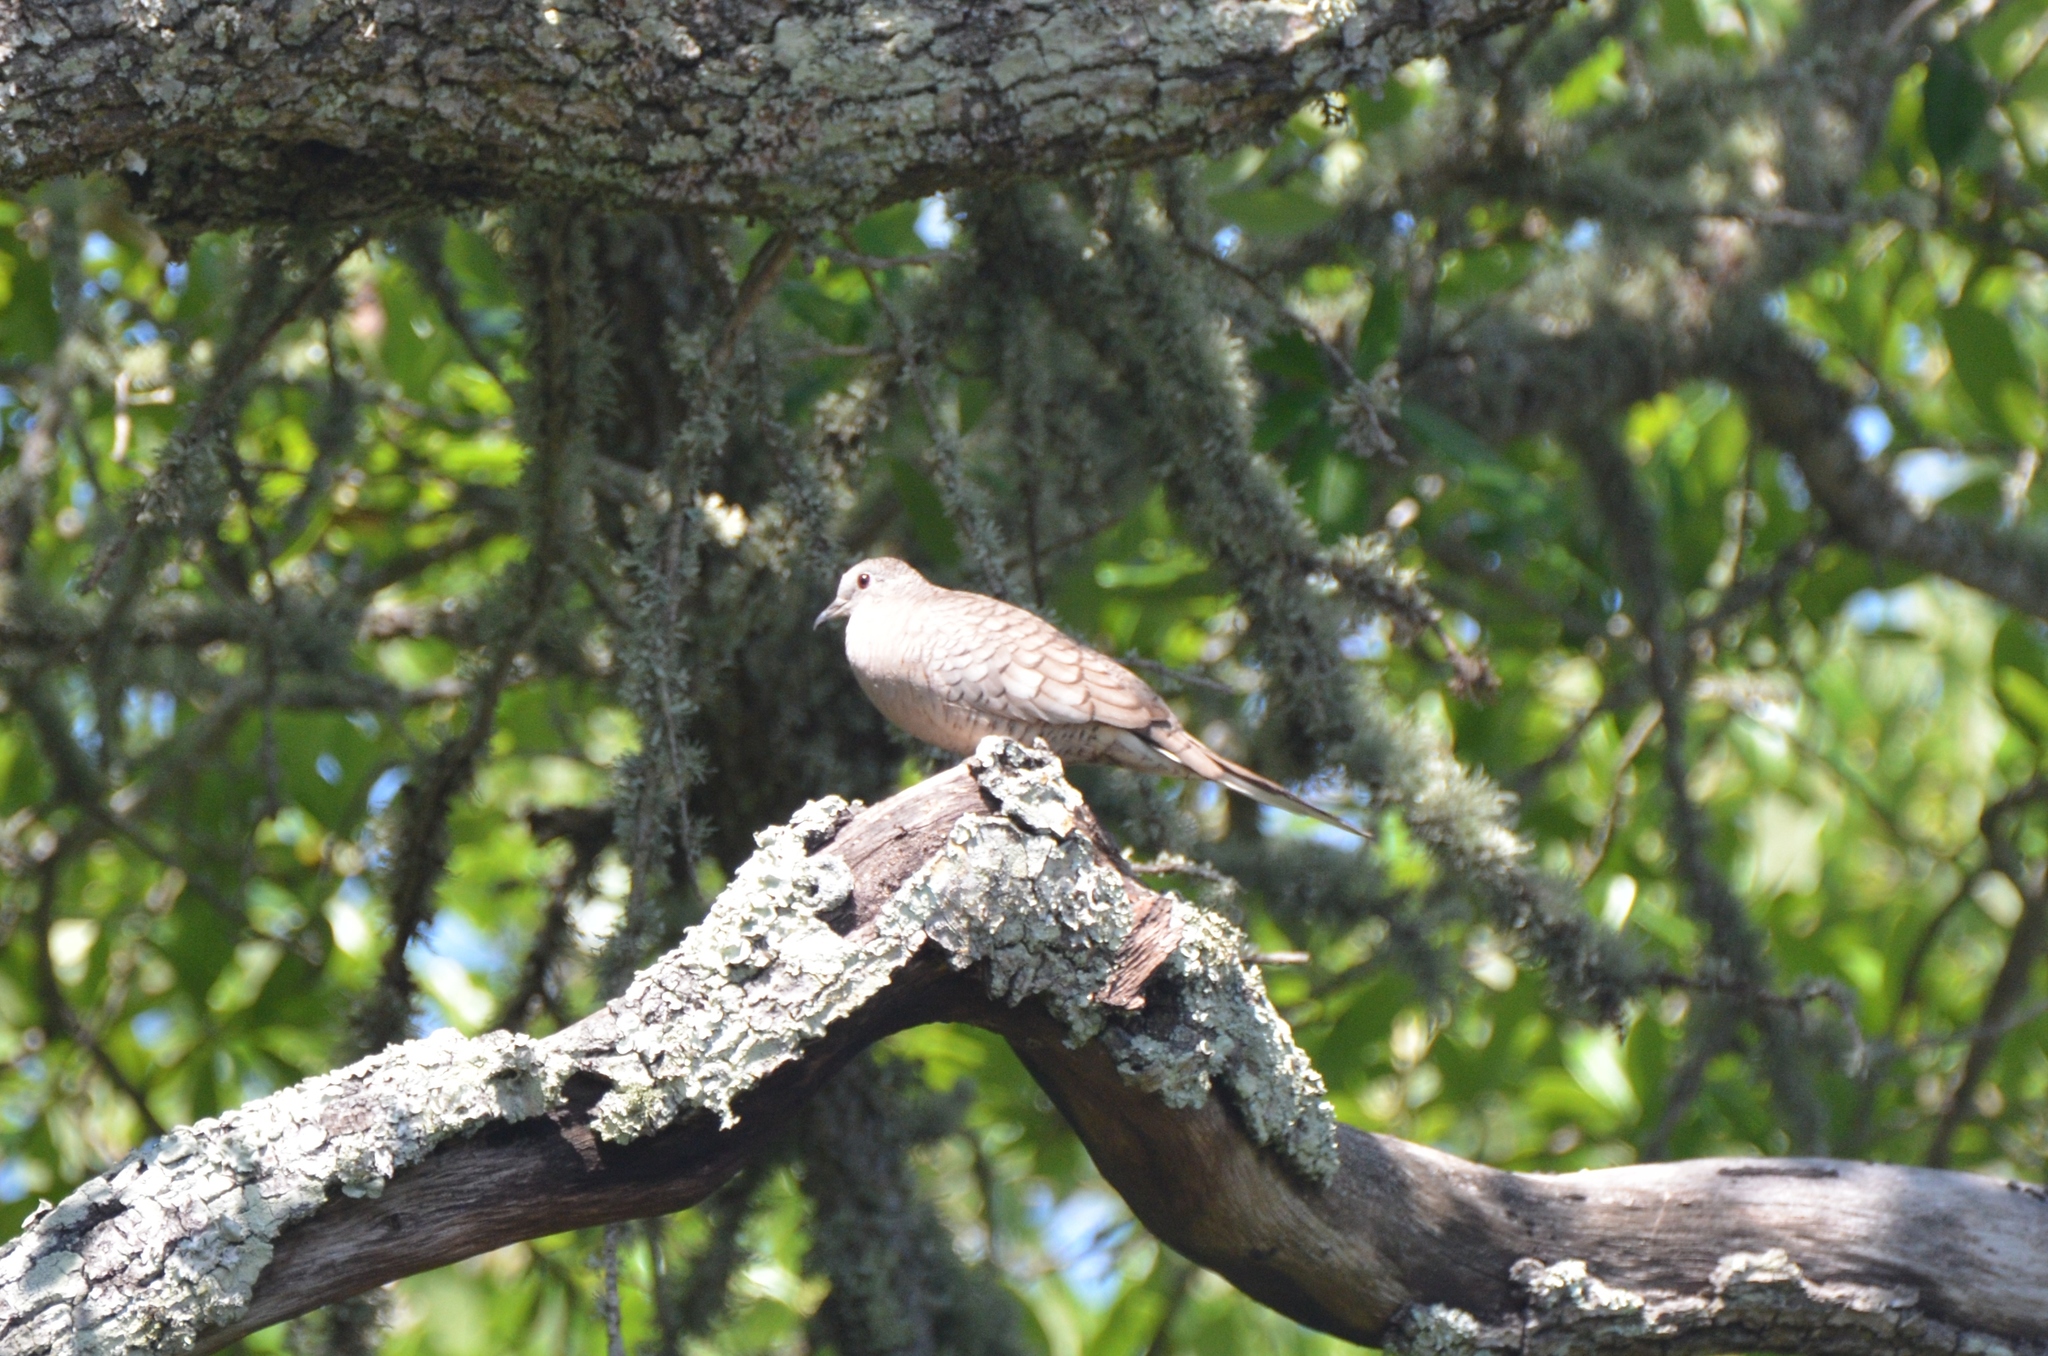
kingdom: Animalia
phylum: Chordata
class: Aves
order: Columbiformes
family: Columbidae
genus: Columbina
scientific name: Columbina inca
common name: Inca dove
